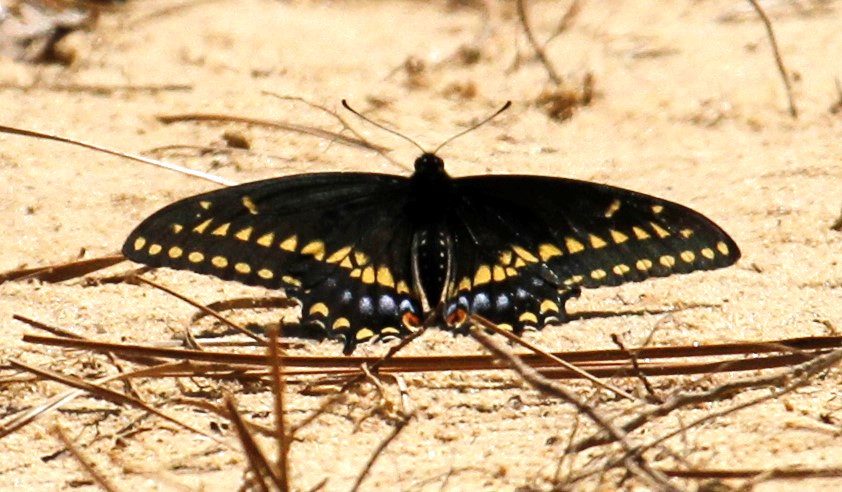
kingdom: Animalia
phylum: Arthropoda
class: Insecta
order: Lepidoptera
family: Papilionidae
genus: Papilio
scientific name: Papilio polyxenes
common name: Black swallowtail
